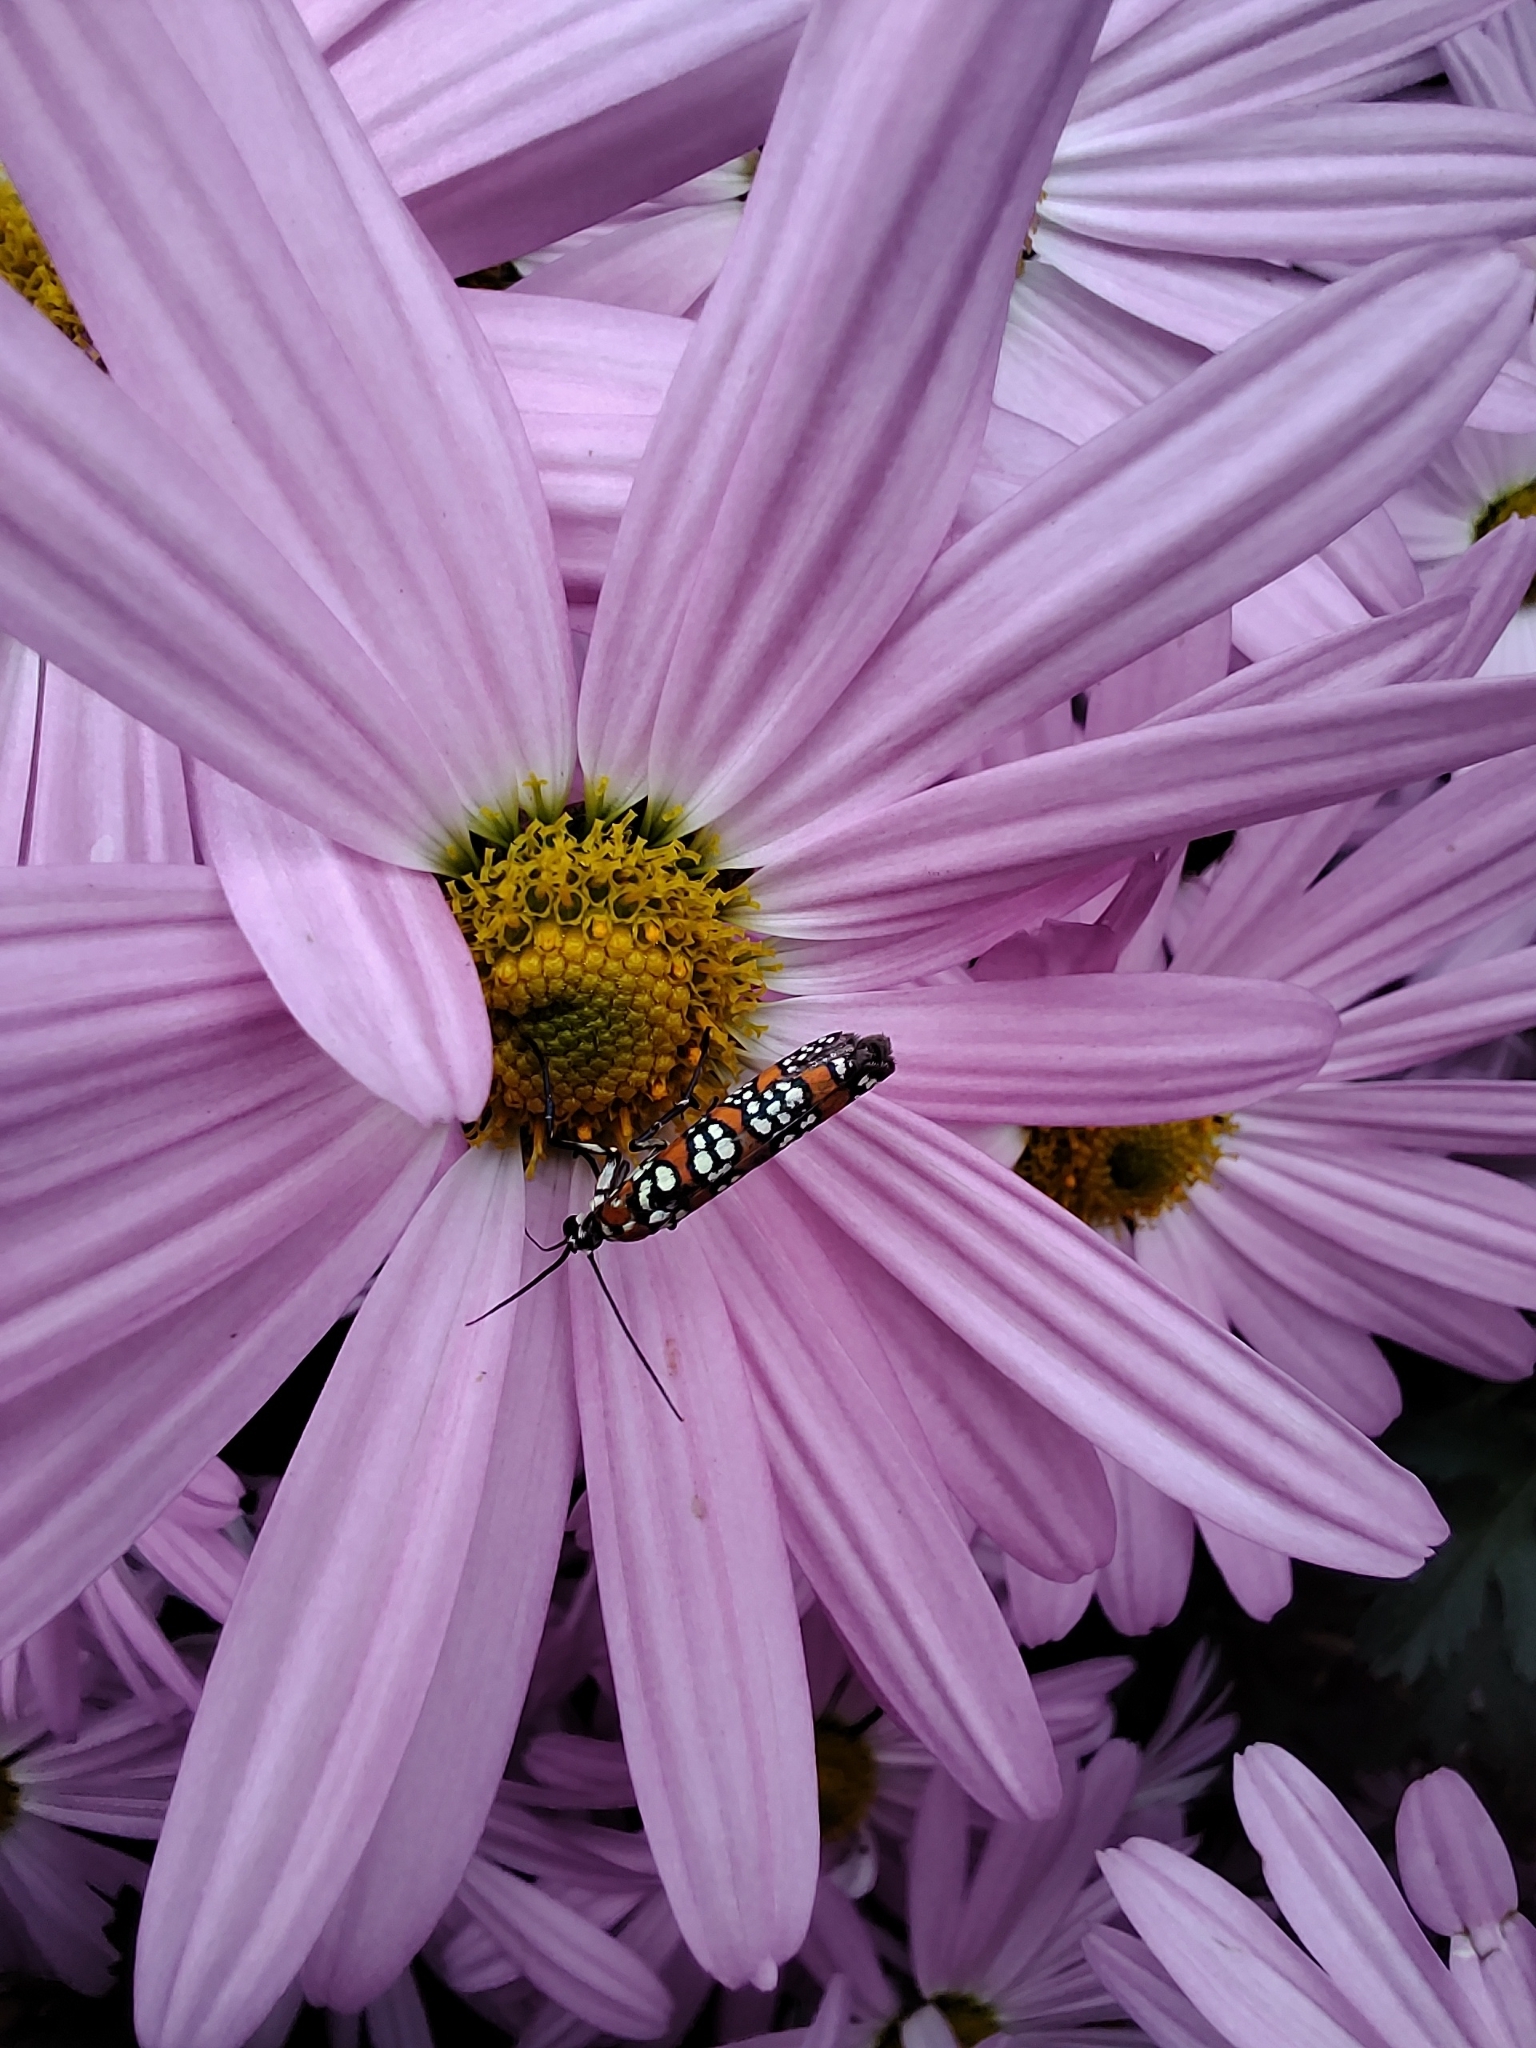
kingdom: Animalia
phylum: Arthropoda
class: Insecta
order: Lepidoptera
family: Attevidae
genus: Atteva
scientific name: Atteva punctella
